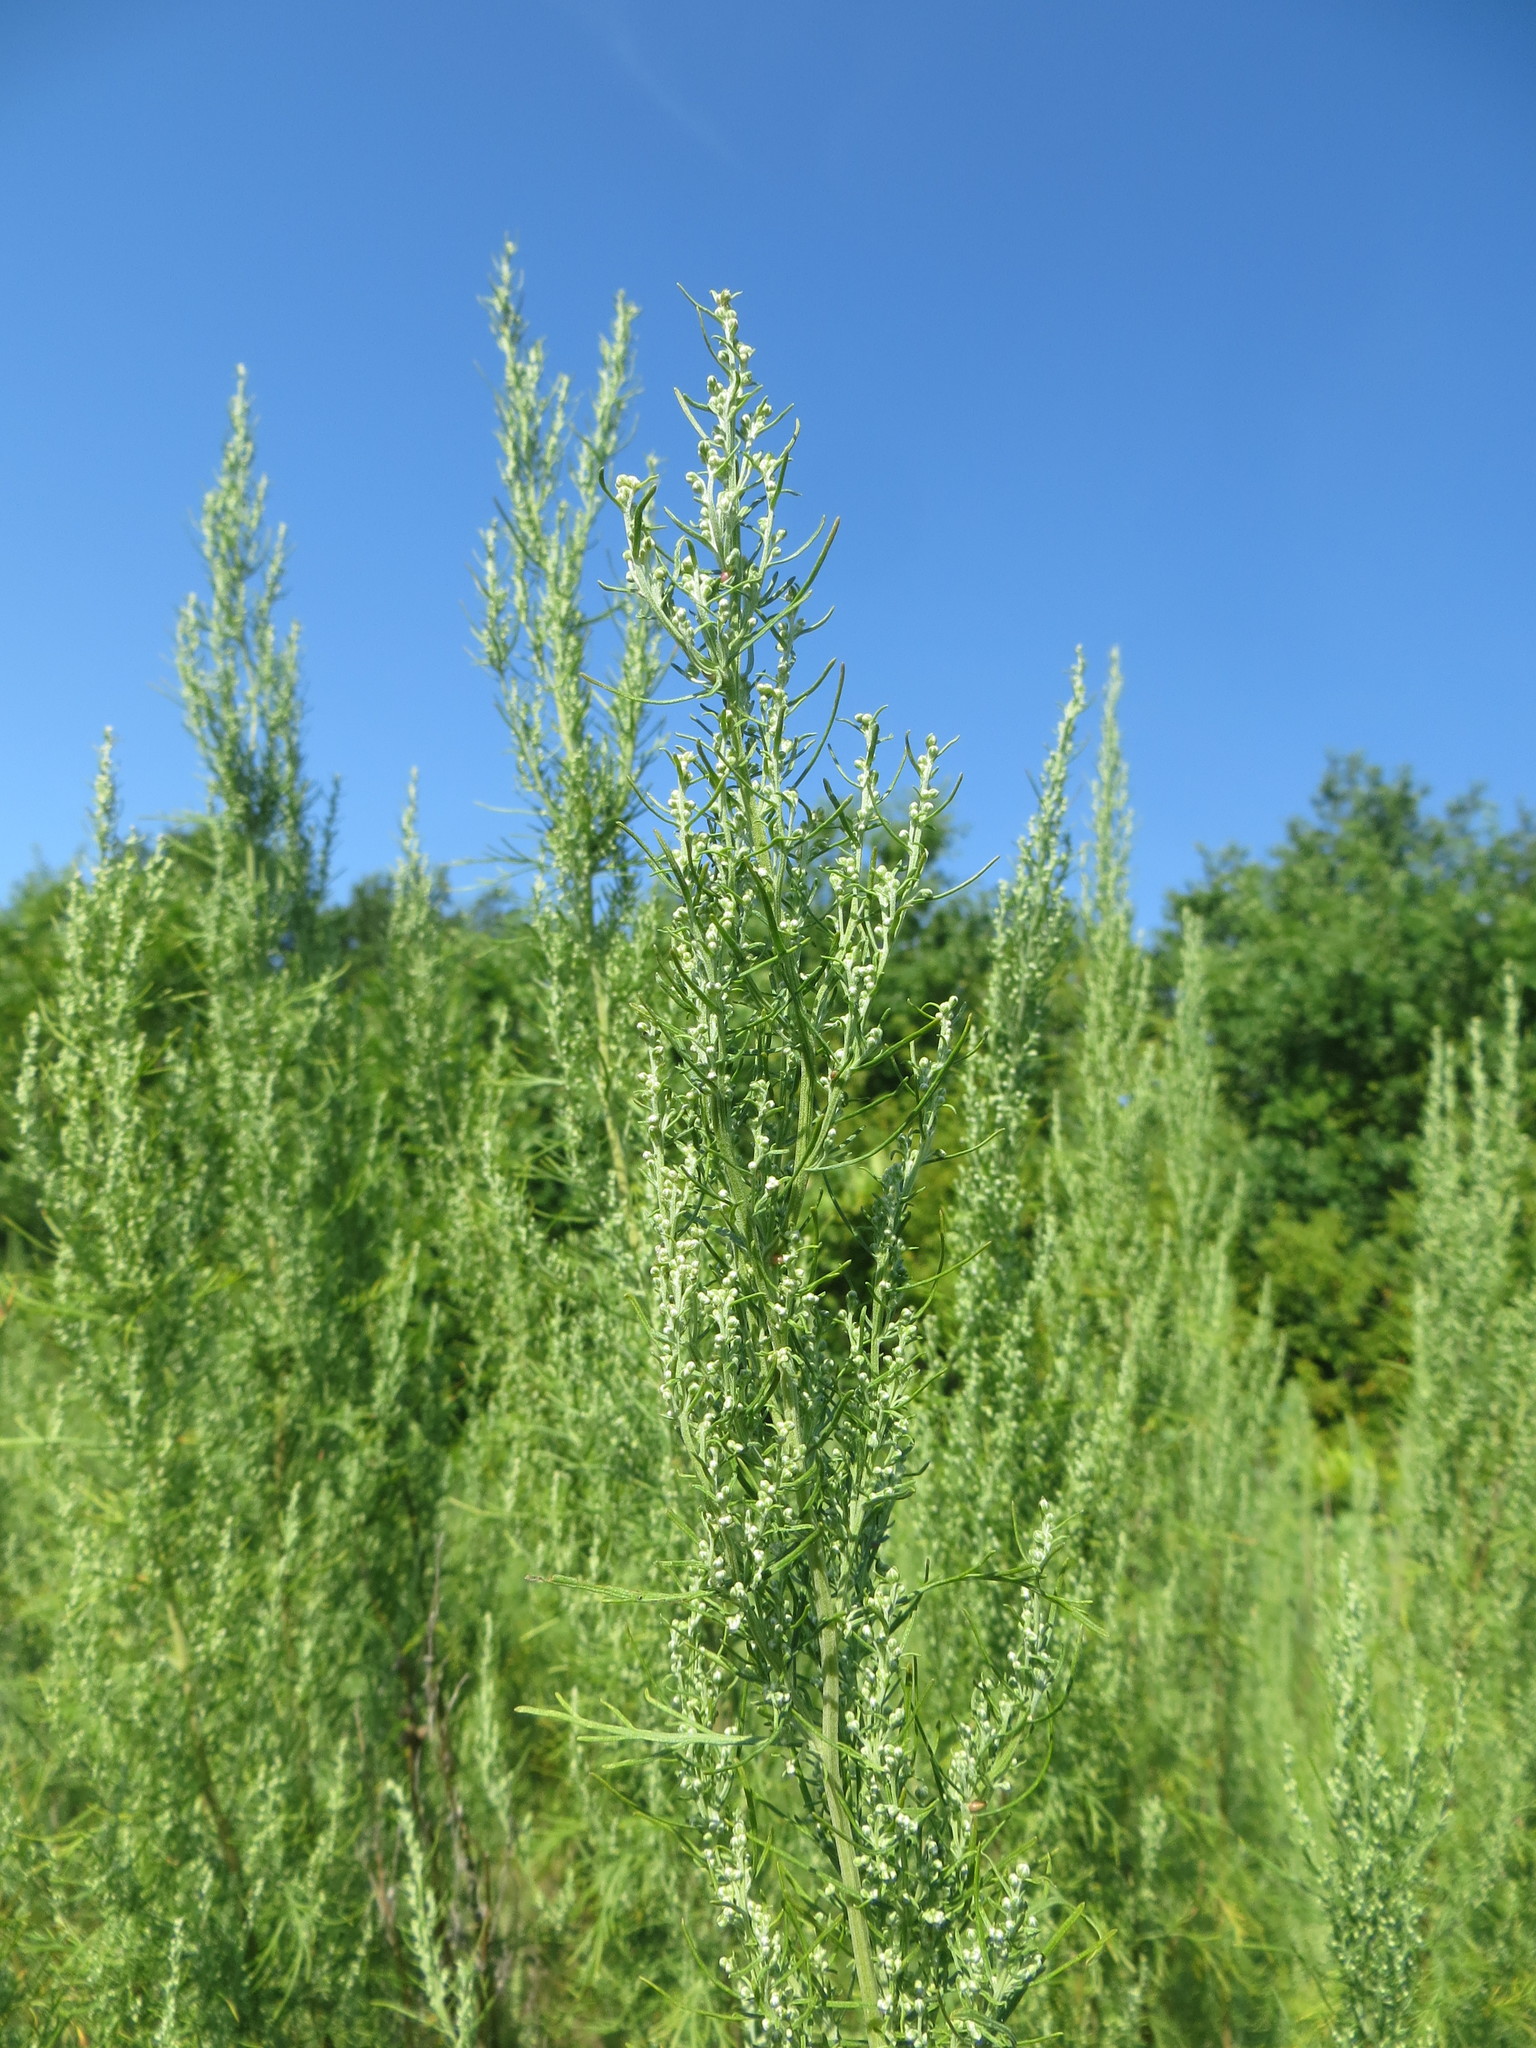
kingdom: Plantae
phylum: Tracheophyta
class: Magnoliopsida
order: Asterales
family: Asteraceae
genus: Artemisia
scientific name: Artemisia abrotanum
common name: Southernwood
